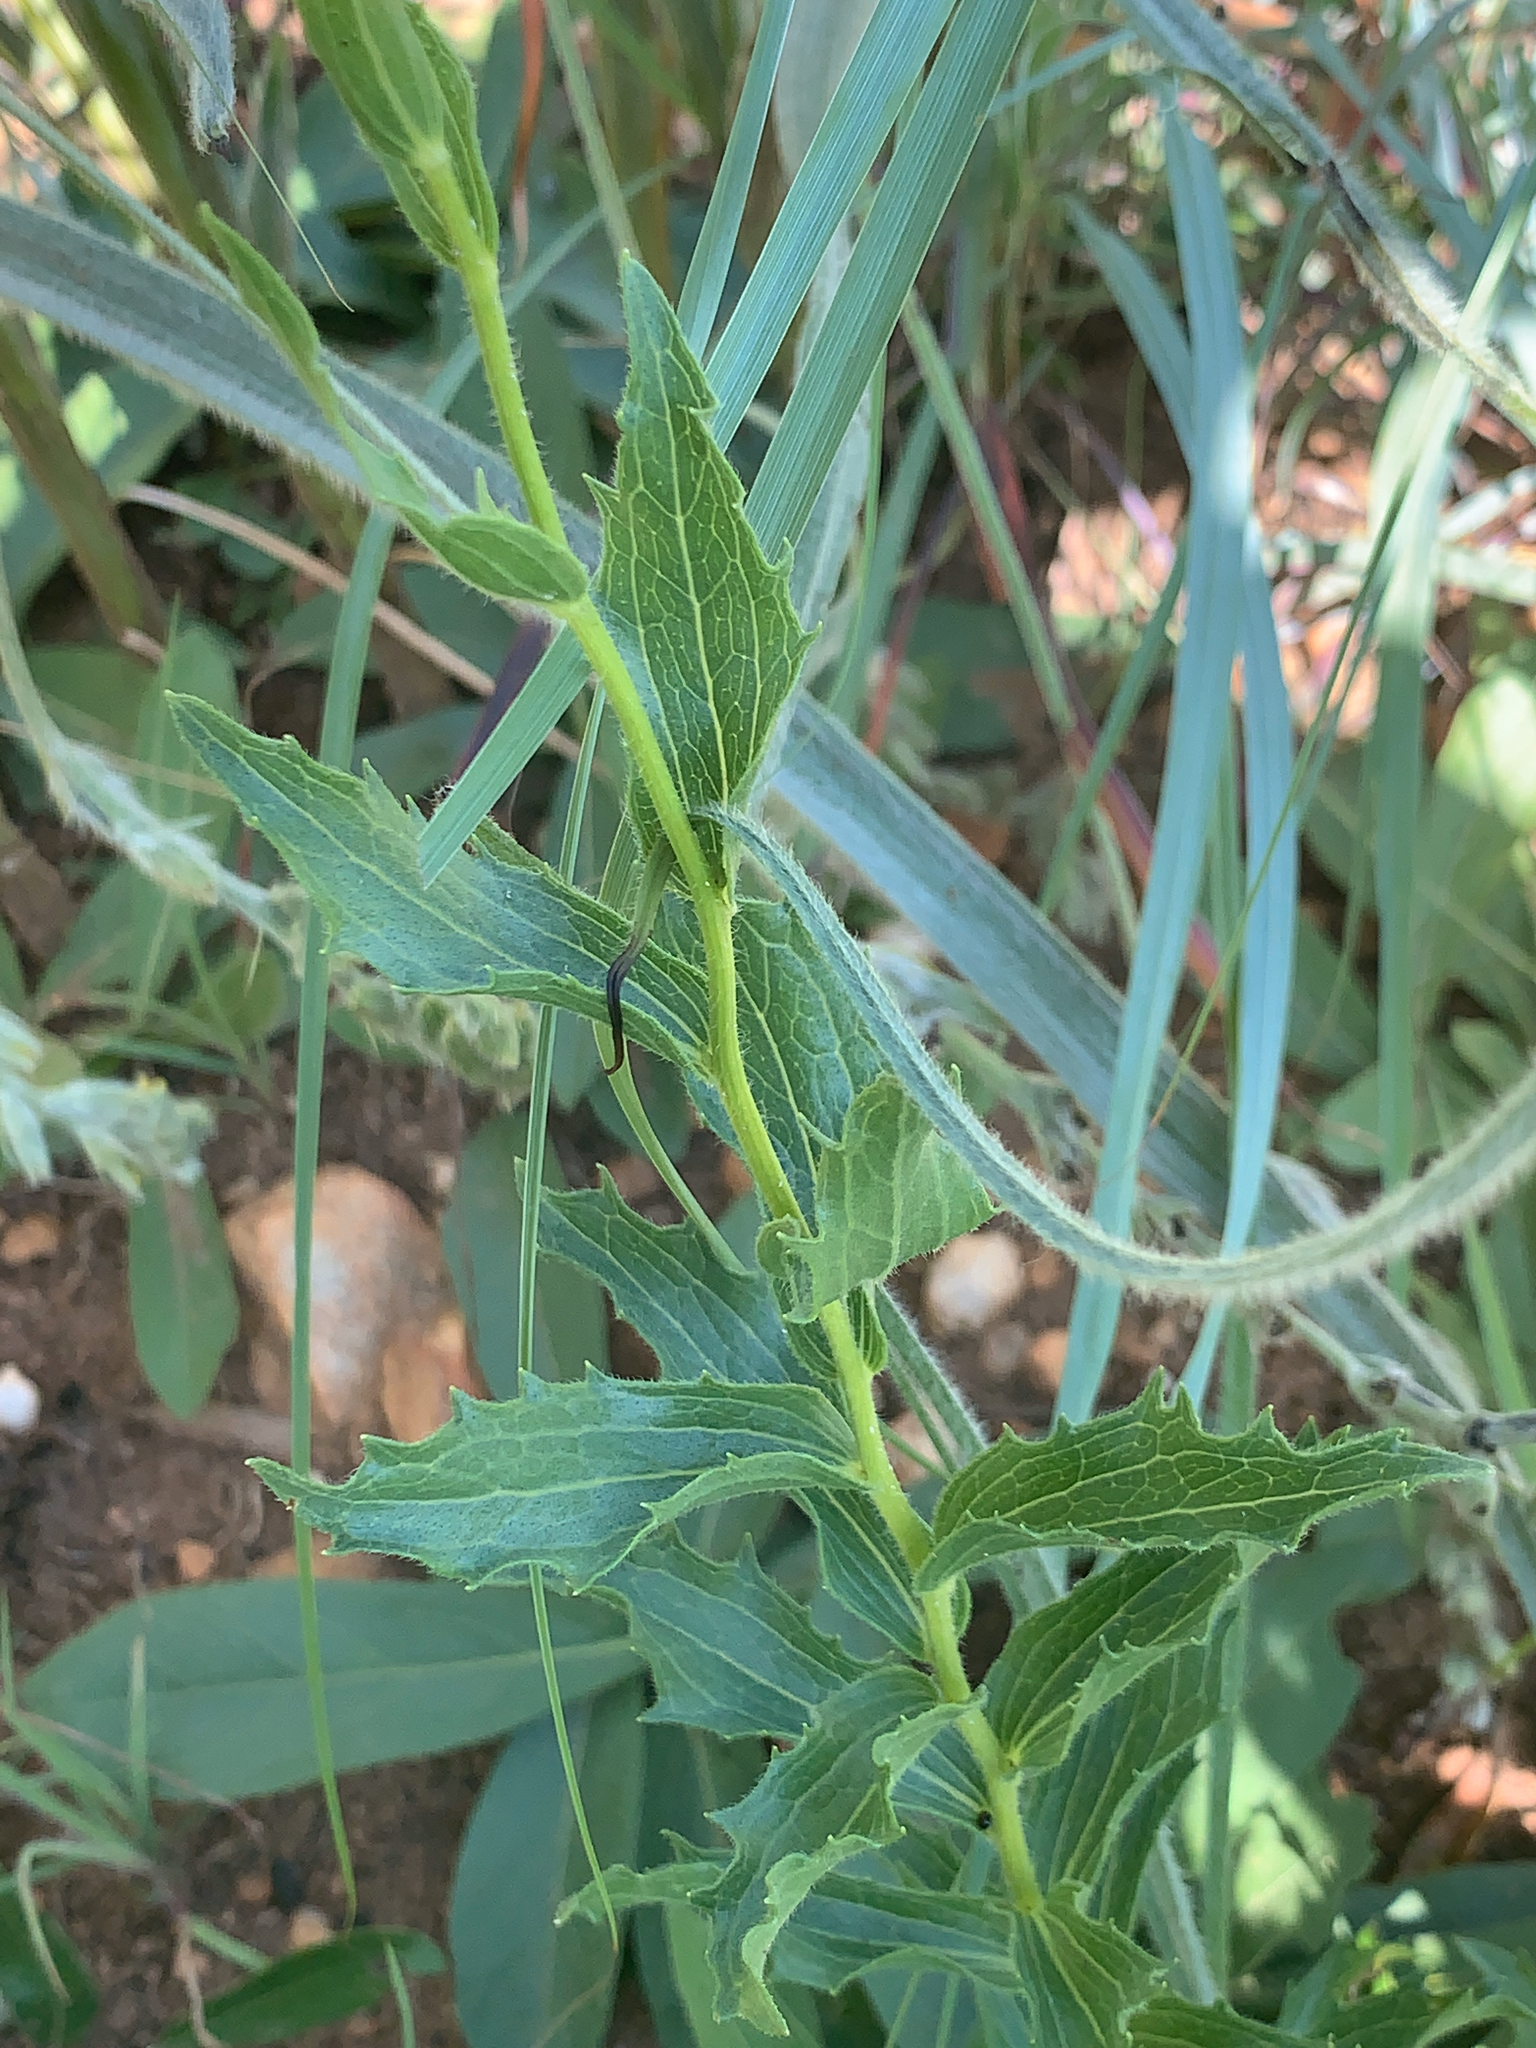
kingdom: Plantae
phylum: Tracheophyta
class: Magnoliopsida
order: Asterales
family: Asteraceae
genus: Afroaster
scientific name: Afroaster peglerae
